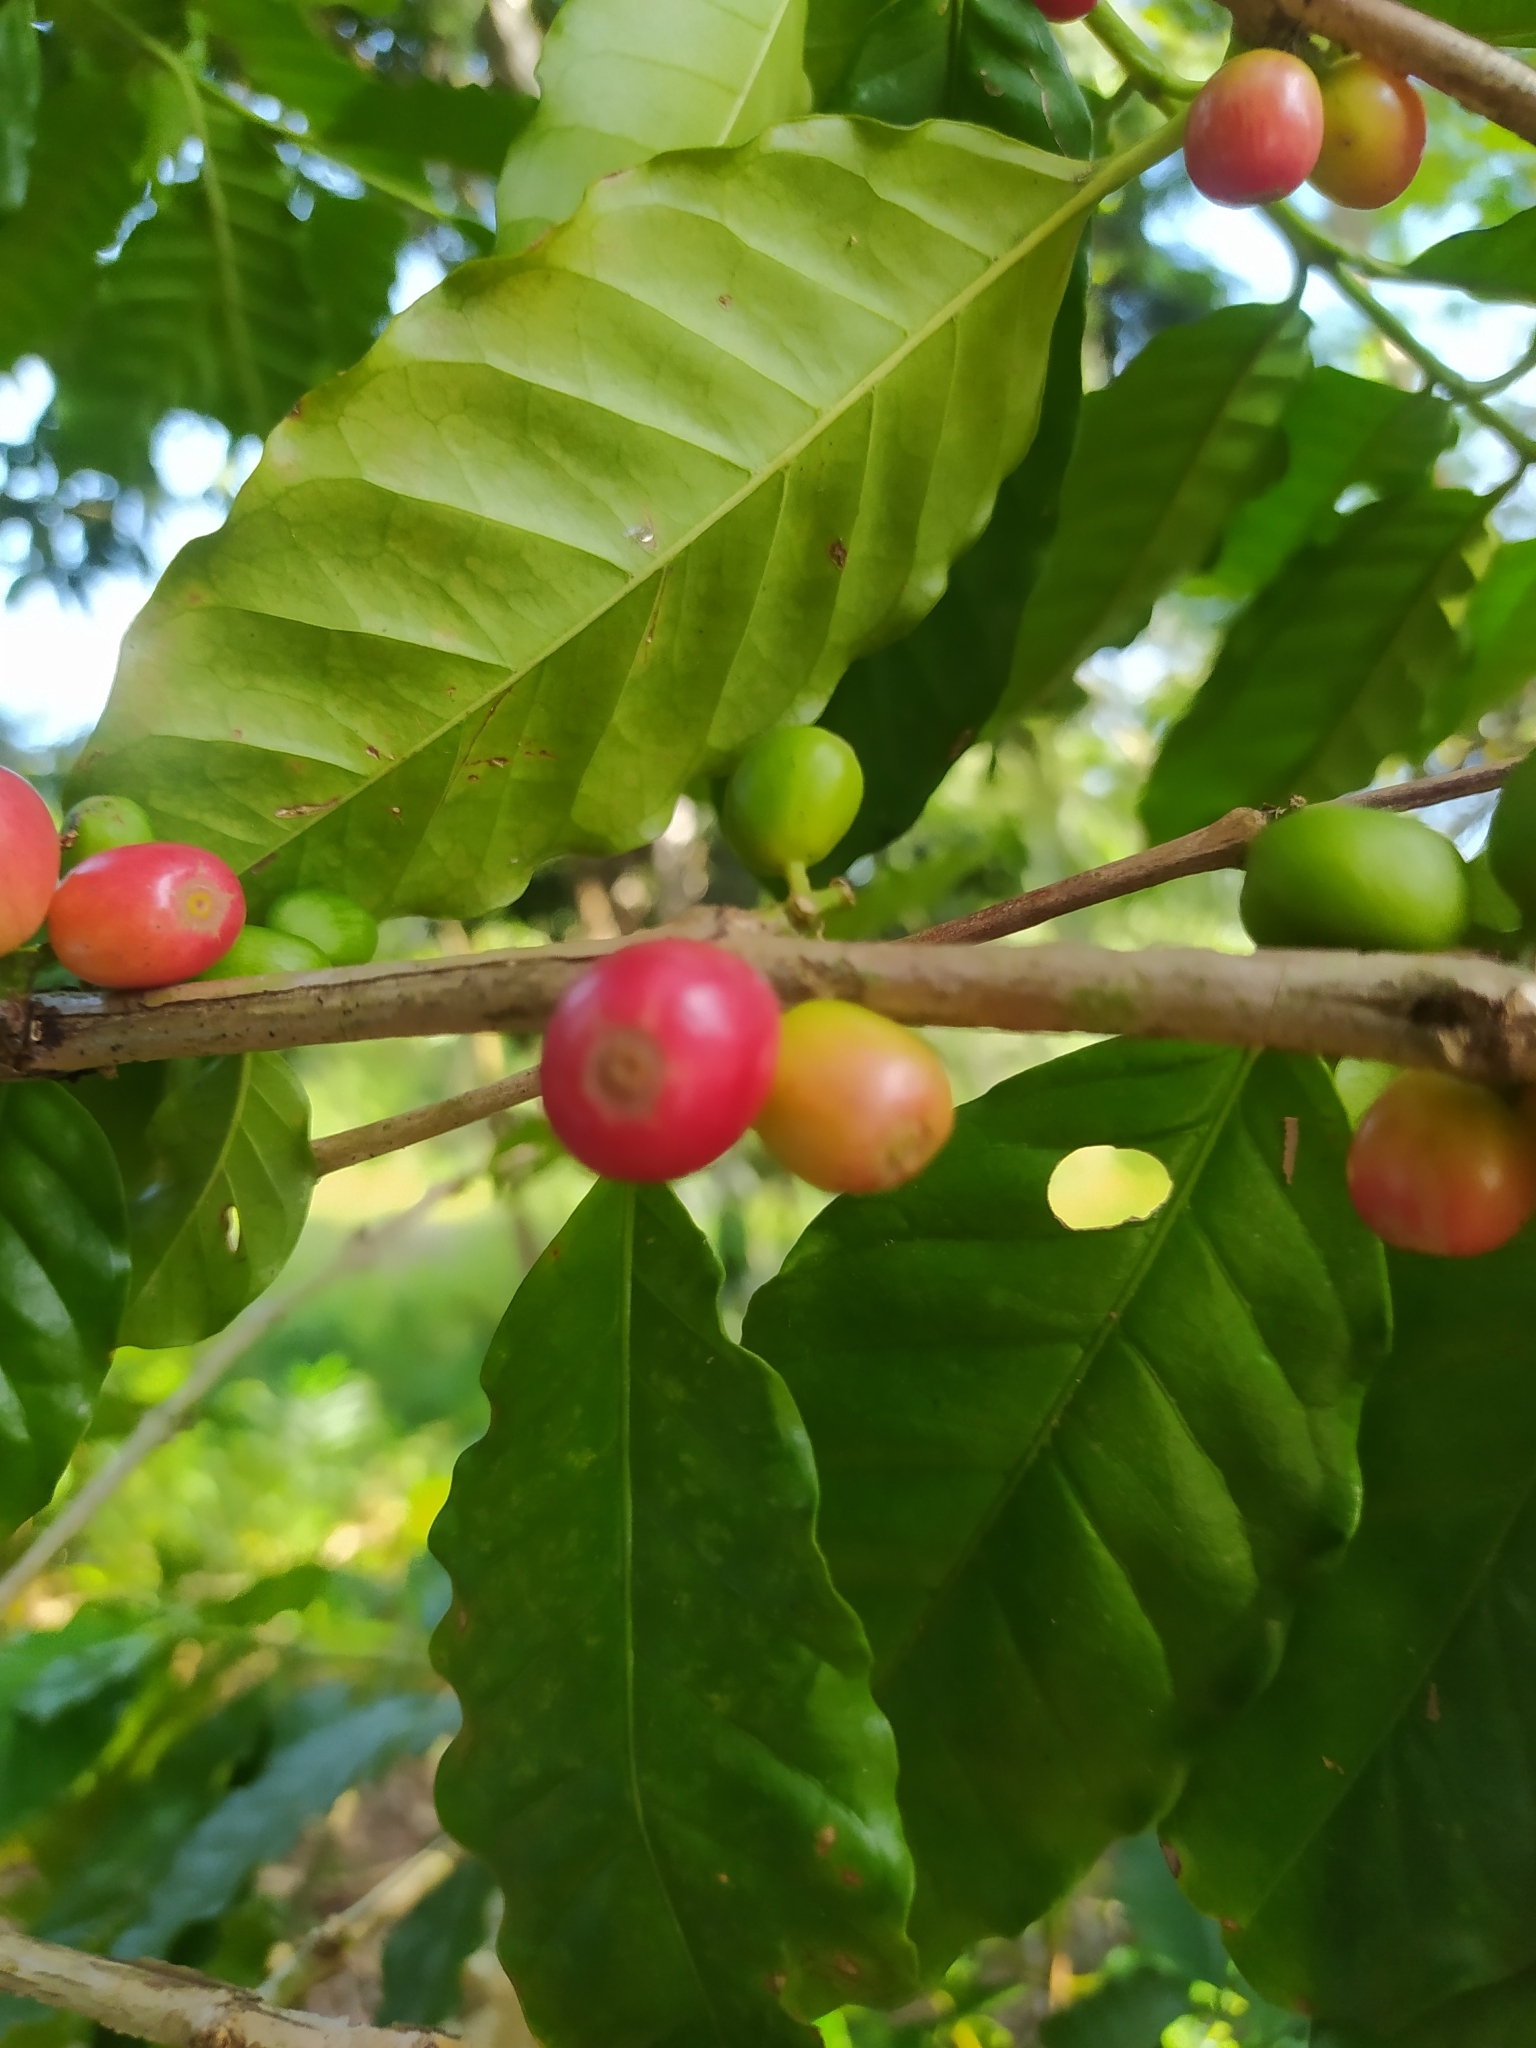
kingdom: Plantae
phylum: Tracheophyta
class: Magnoliopsida
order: Gentianales
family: Rubiaceae
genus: Coffea
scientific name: Coffea arabica
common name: Coffee
